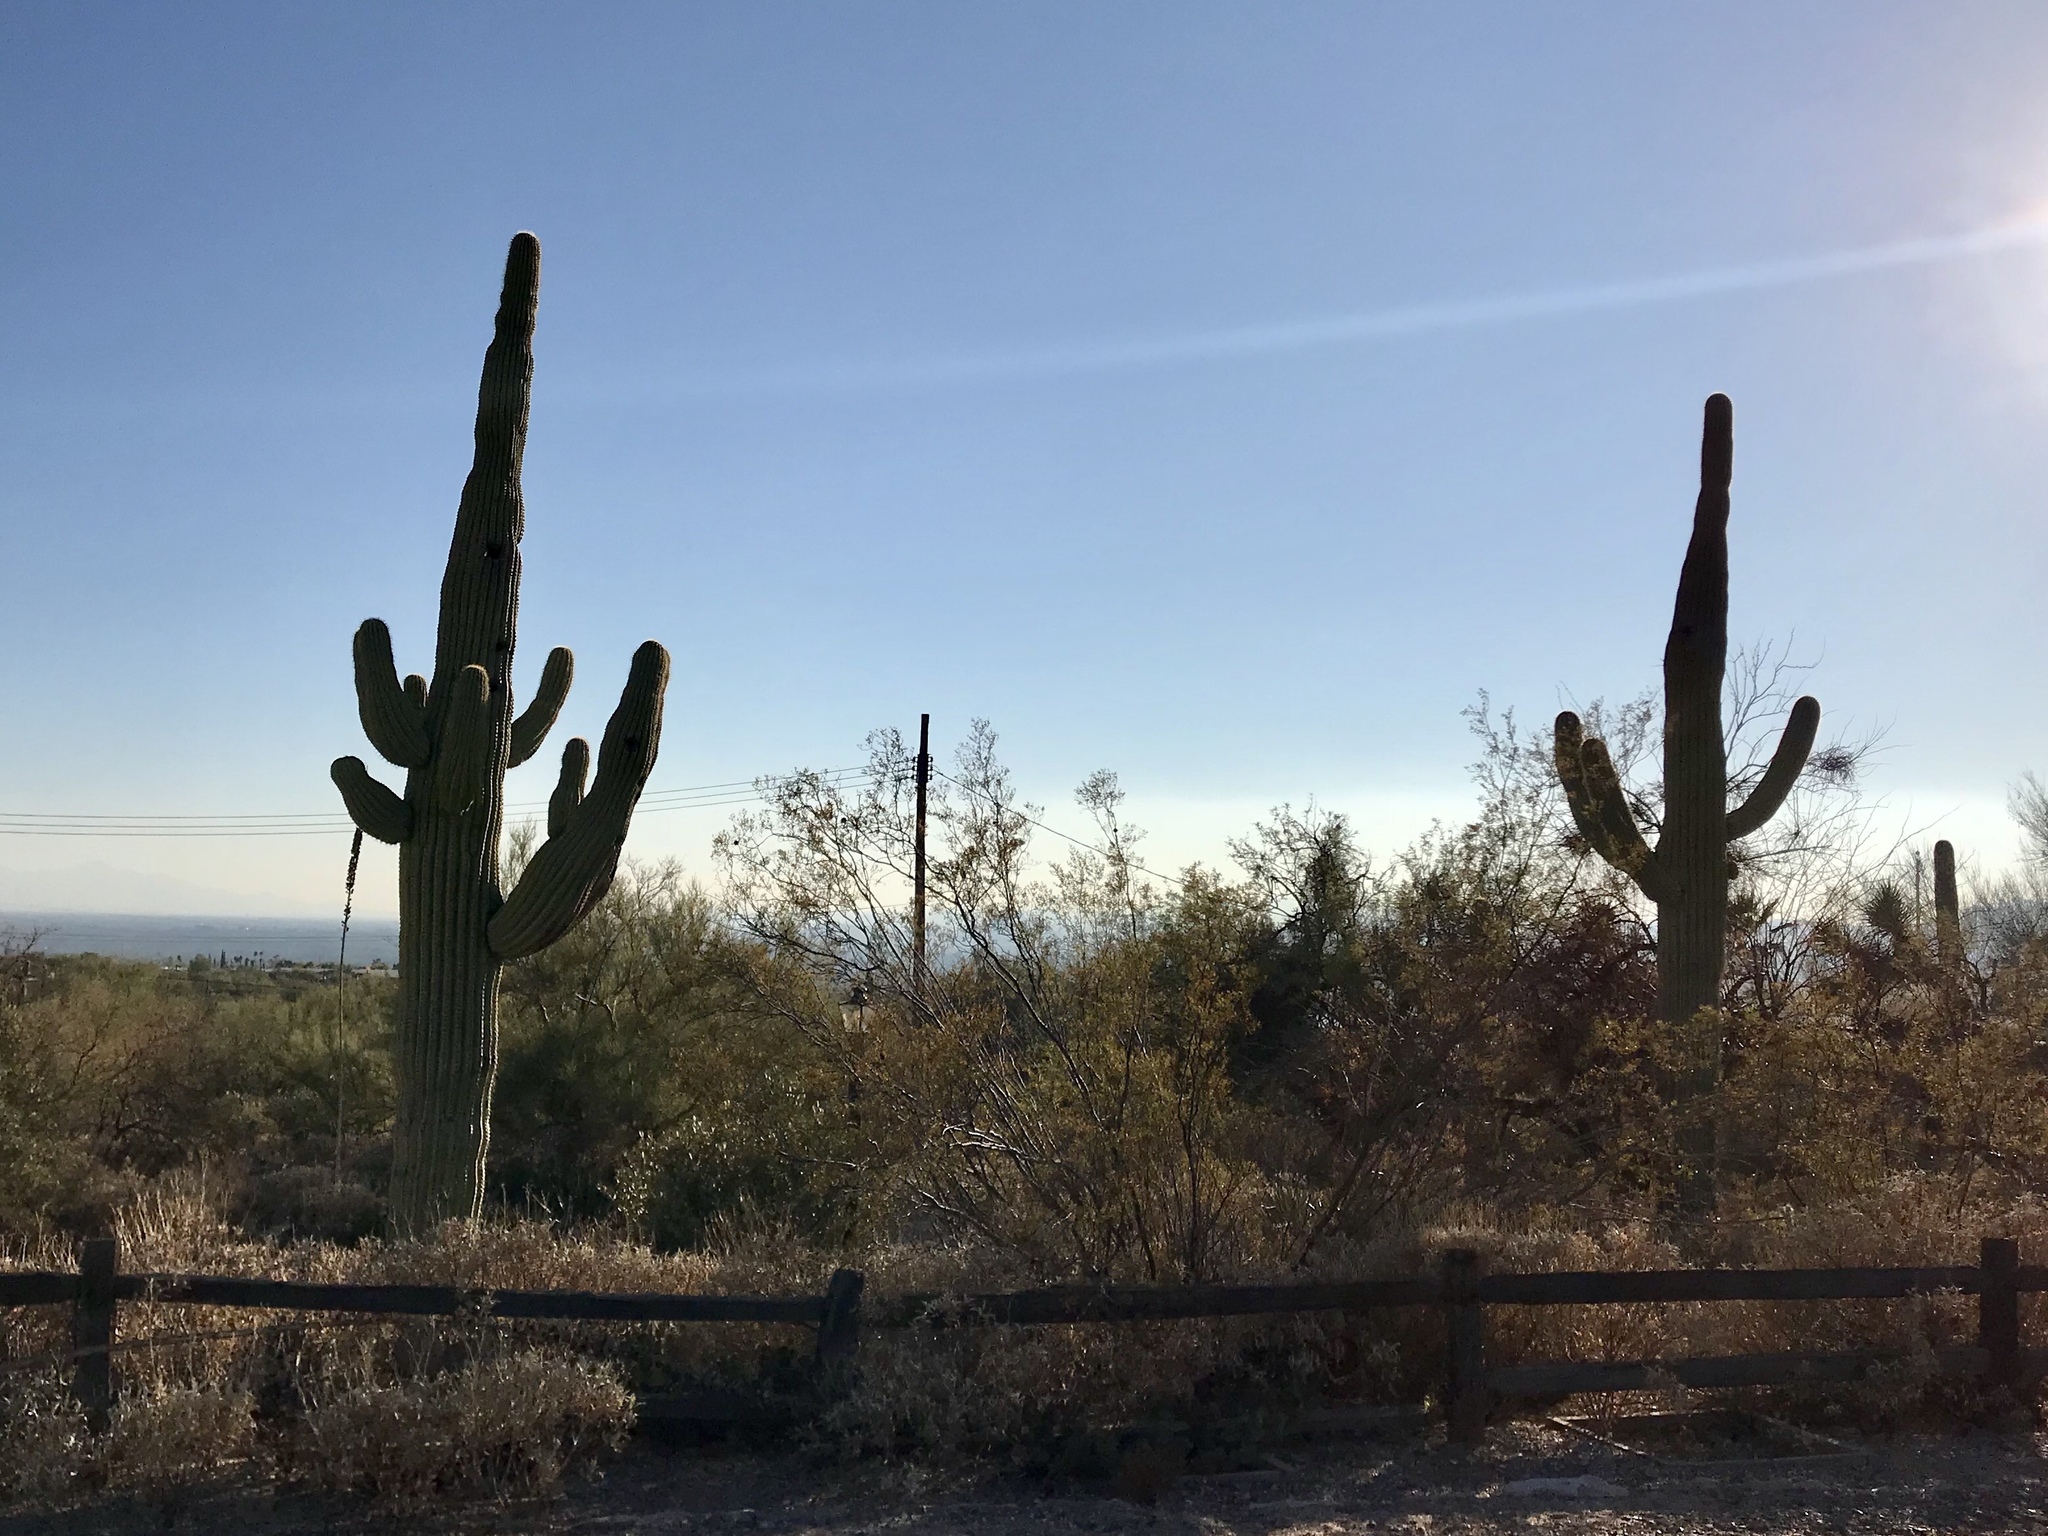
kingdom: Plantae
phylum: Tracheophyta
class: Magnoliopsida
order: Caryophyllales
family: Cactaceae
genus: Carnegiea
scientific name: Carnegiea gigantea
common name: Saguaro
